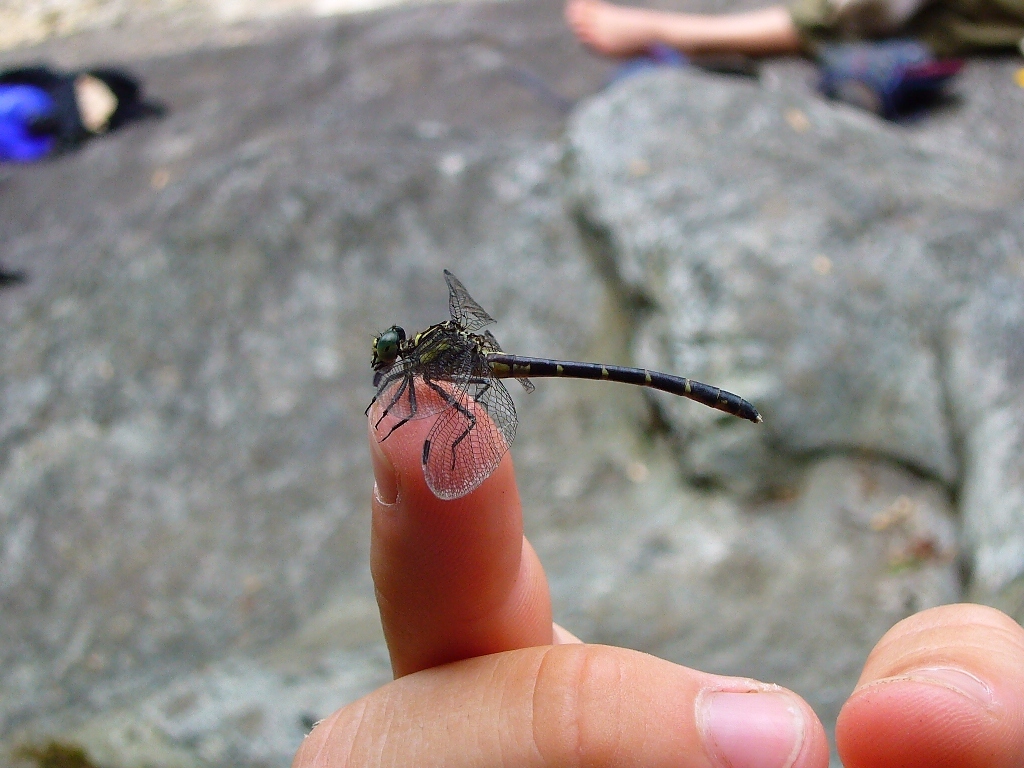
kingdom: Animalia
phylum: Arthropoda
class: Insecta
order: Odonata
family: Gomphidae
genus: Stylogomphus
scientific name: Stylogomphus albistylus
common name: Eastern least clubtail
